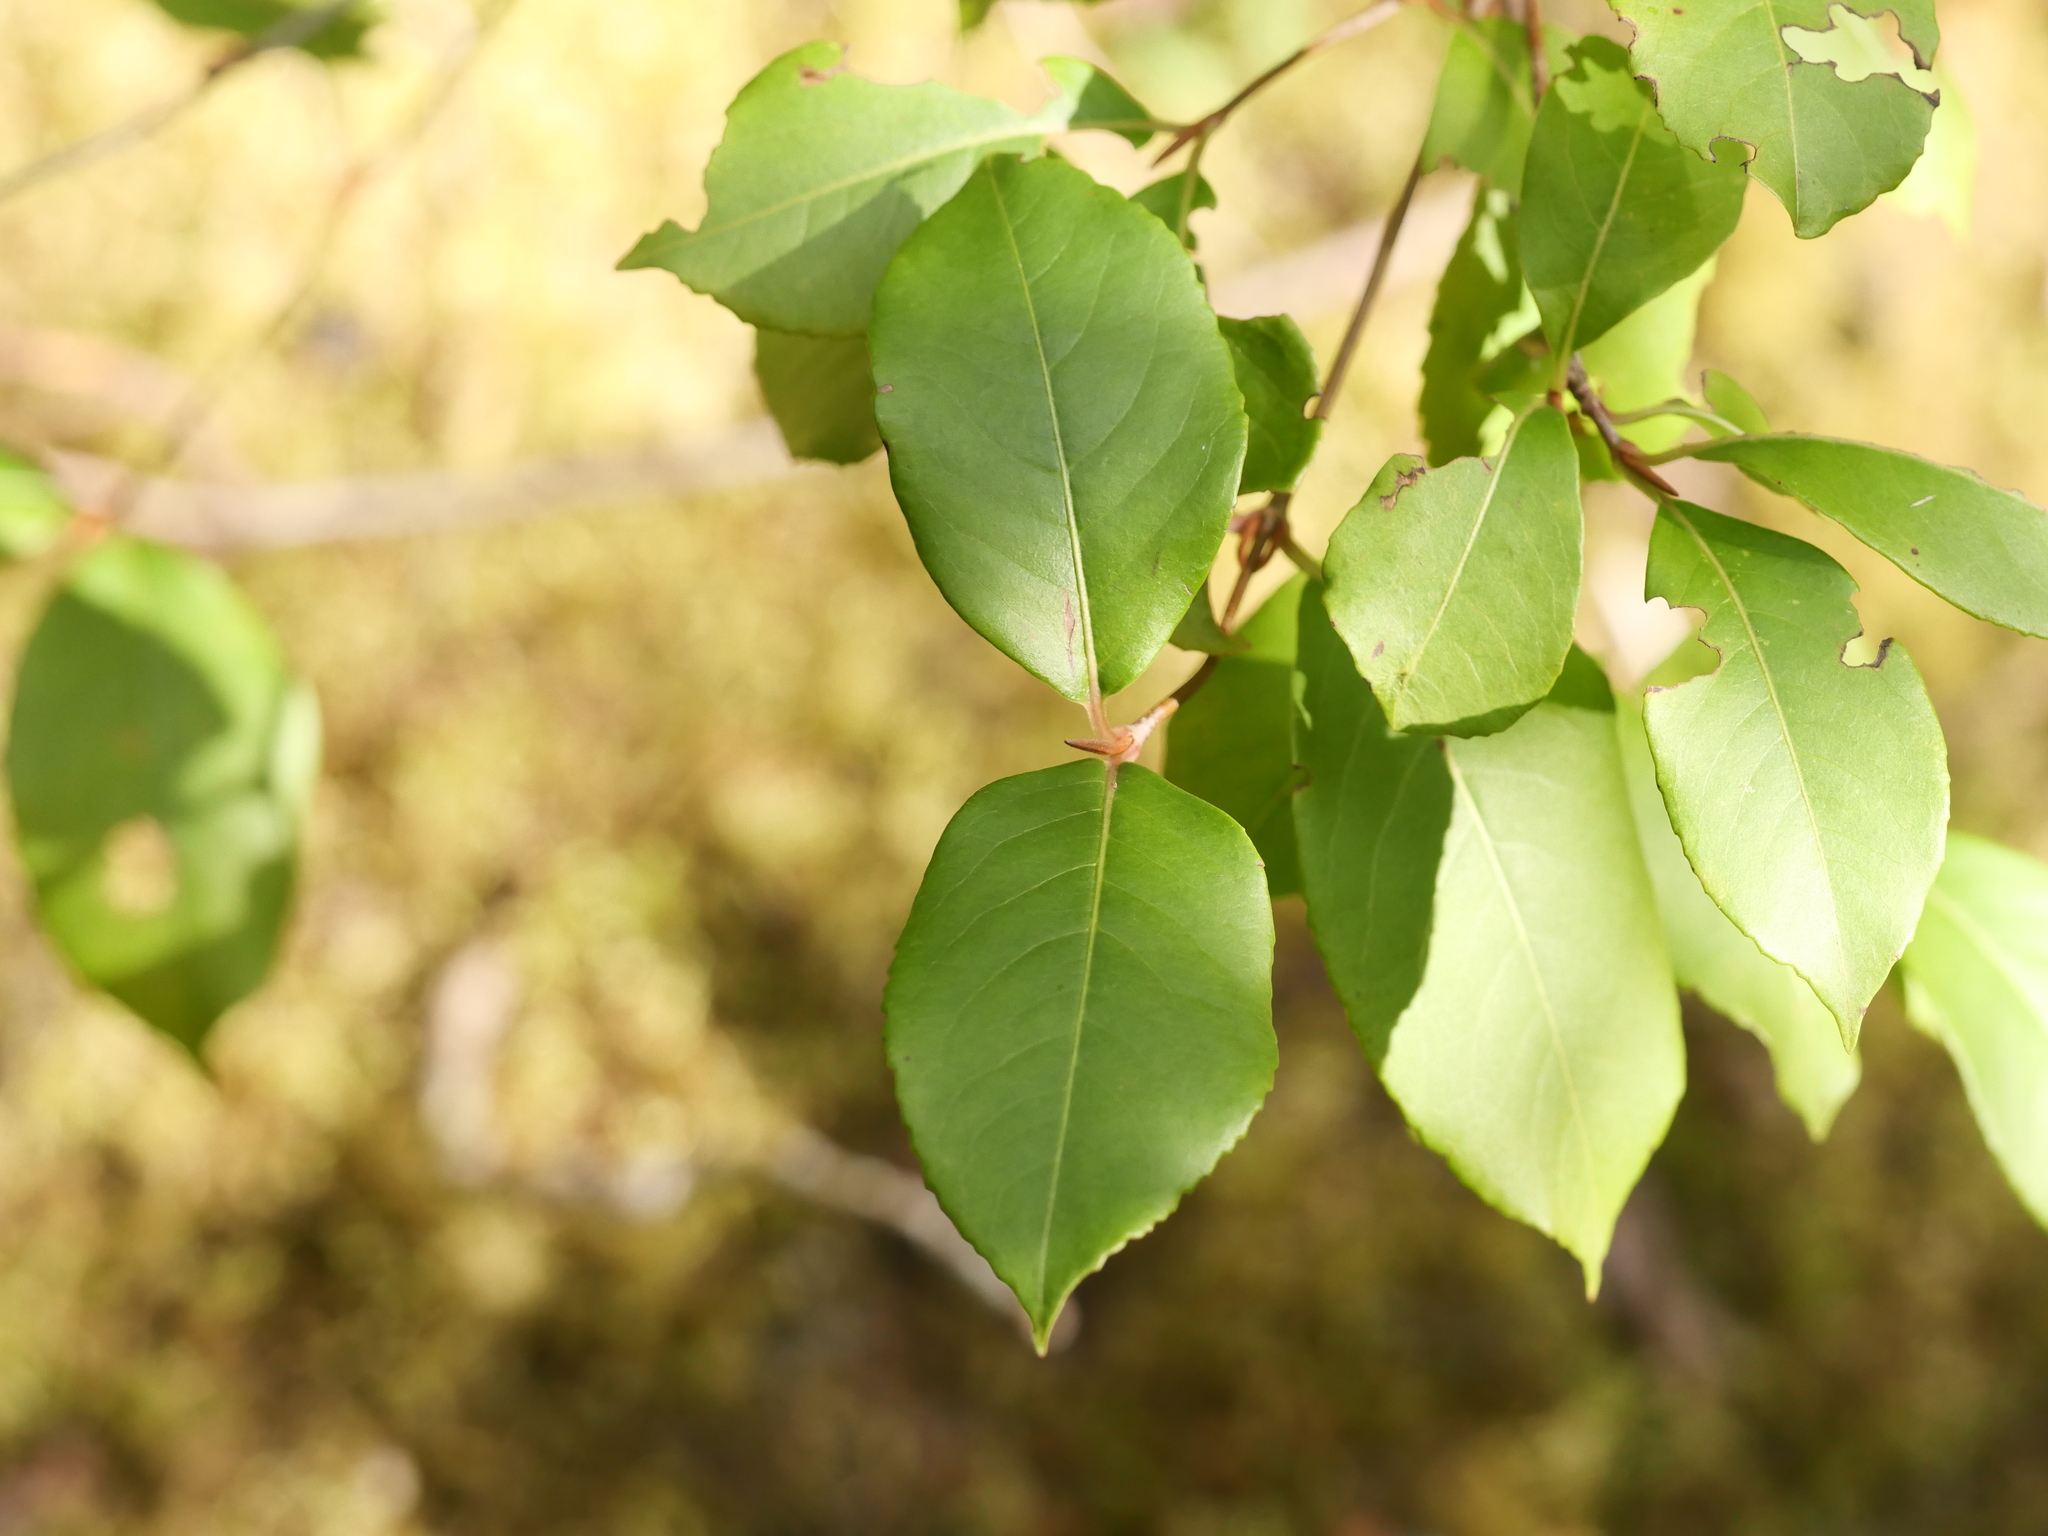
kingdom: Plantae
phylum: Tracheophyta
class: Magnoliopsida
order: Dipsacales
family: Viburnaceae
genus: Viburnum
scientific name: Viburnum cassinoides
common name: Swamp haw
